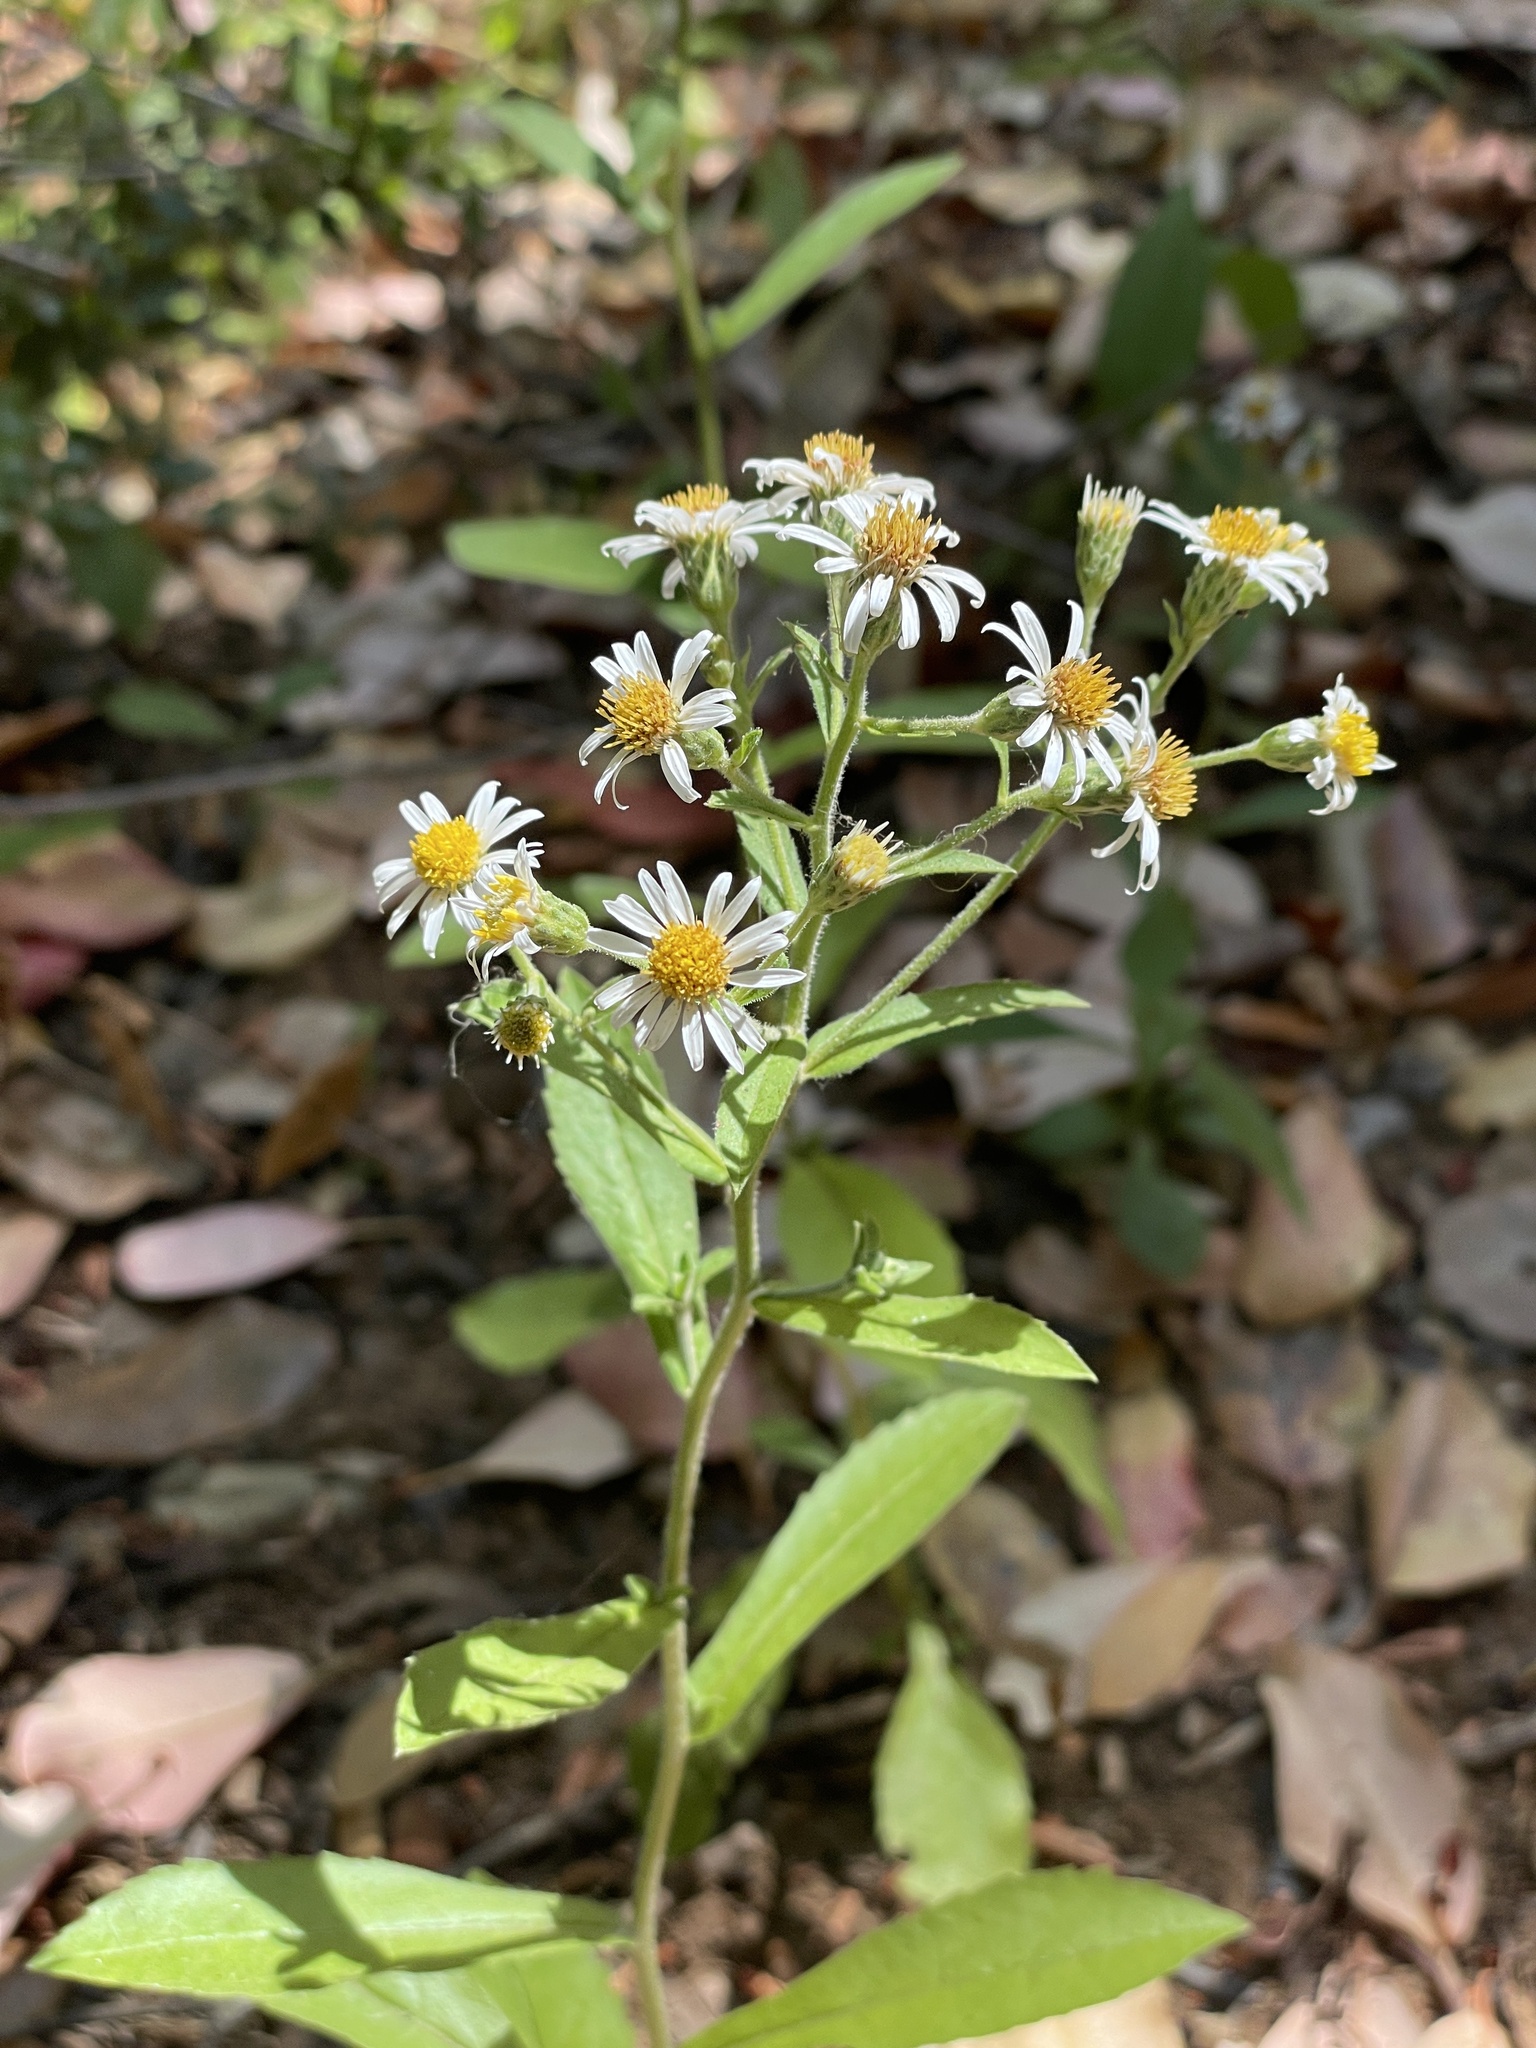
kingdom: Plantae
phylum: Tracheophyta
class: Magnoliopsida
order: Asterales
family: Asteraceae
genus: Eurybia
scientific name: Eurybia radulina
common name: Rough-leaved aster
